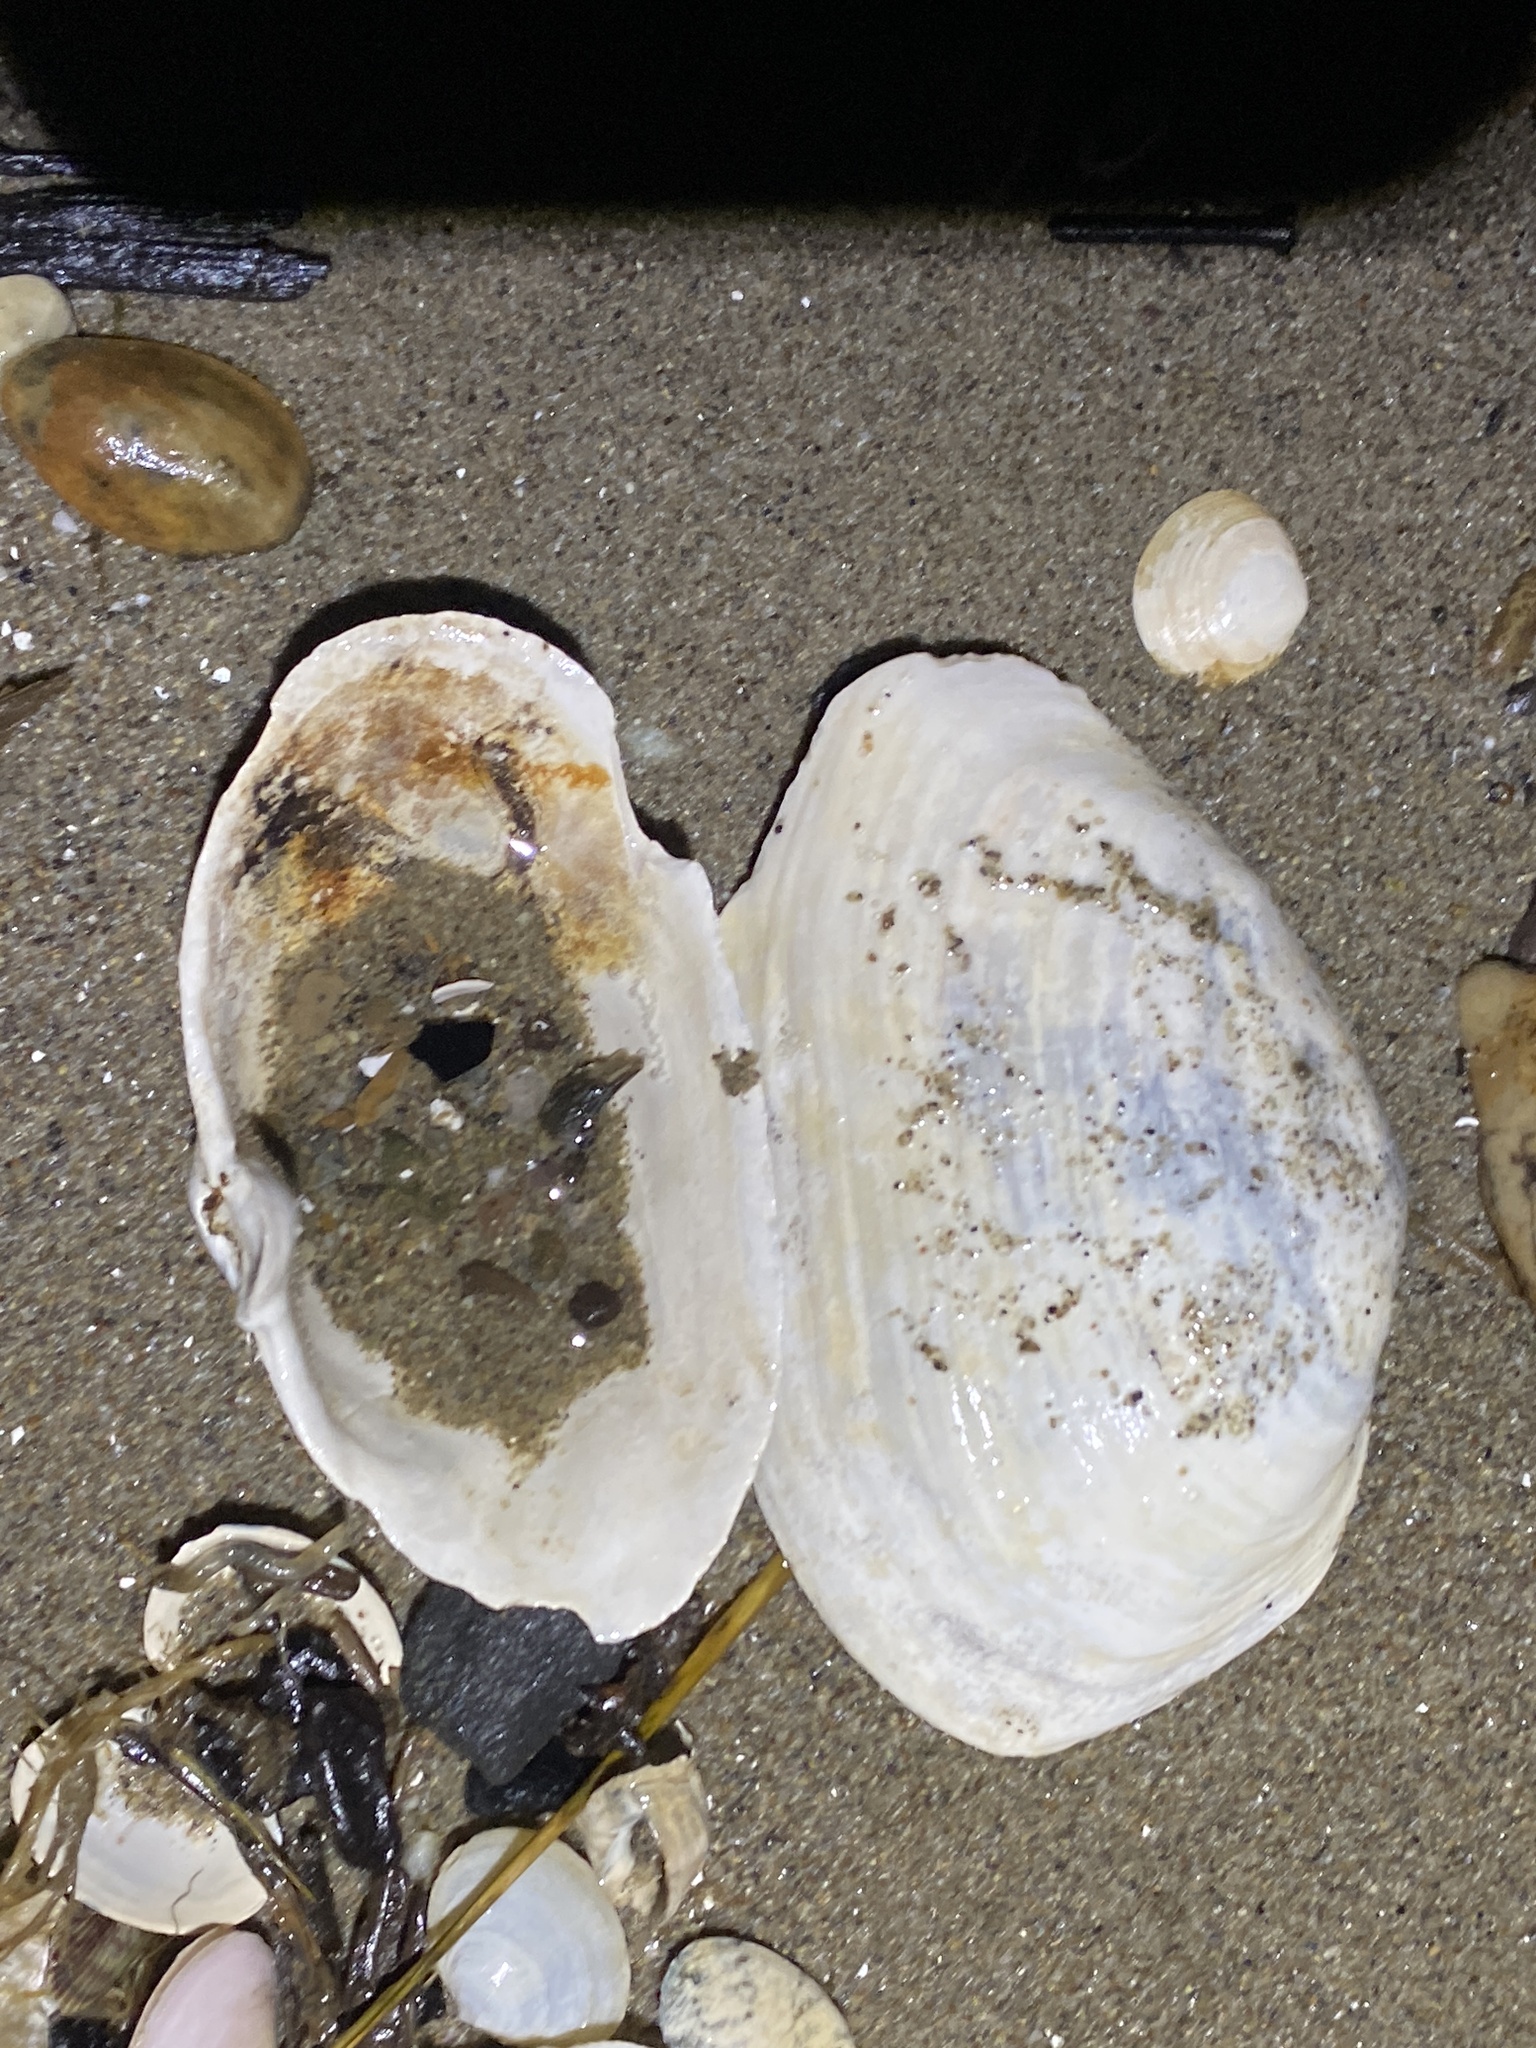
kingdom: Animalia
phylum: Mollusca
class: Bivalvia
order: Myida
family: Myidae
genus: Mya
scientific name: Mya arenaria
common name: Soft-shelled clam
